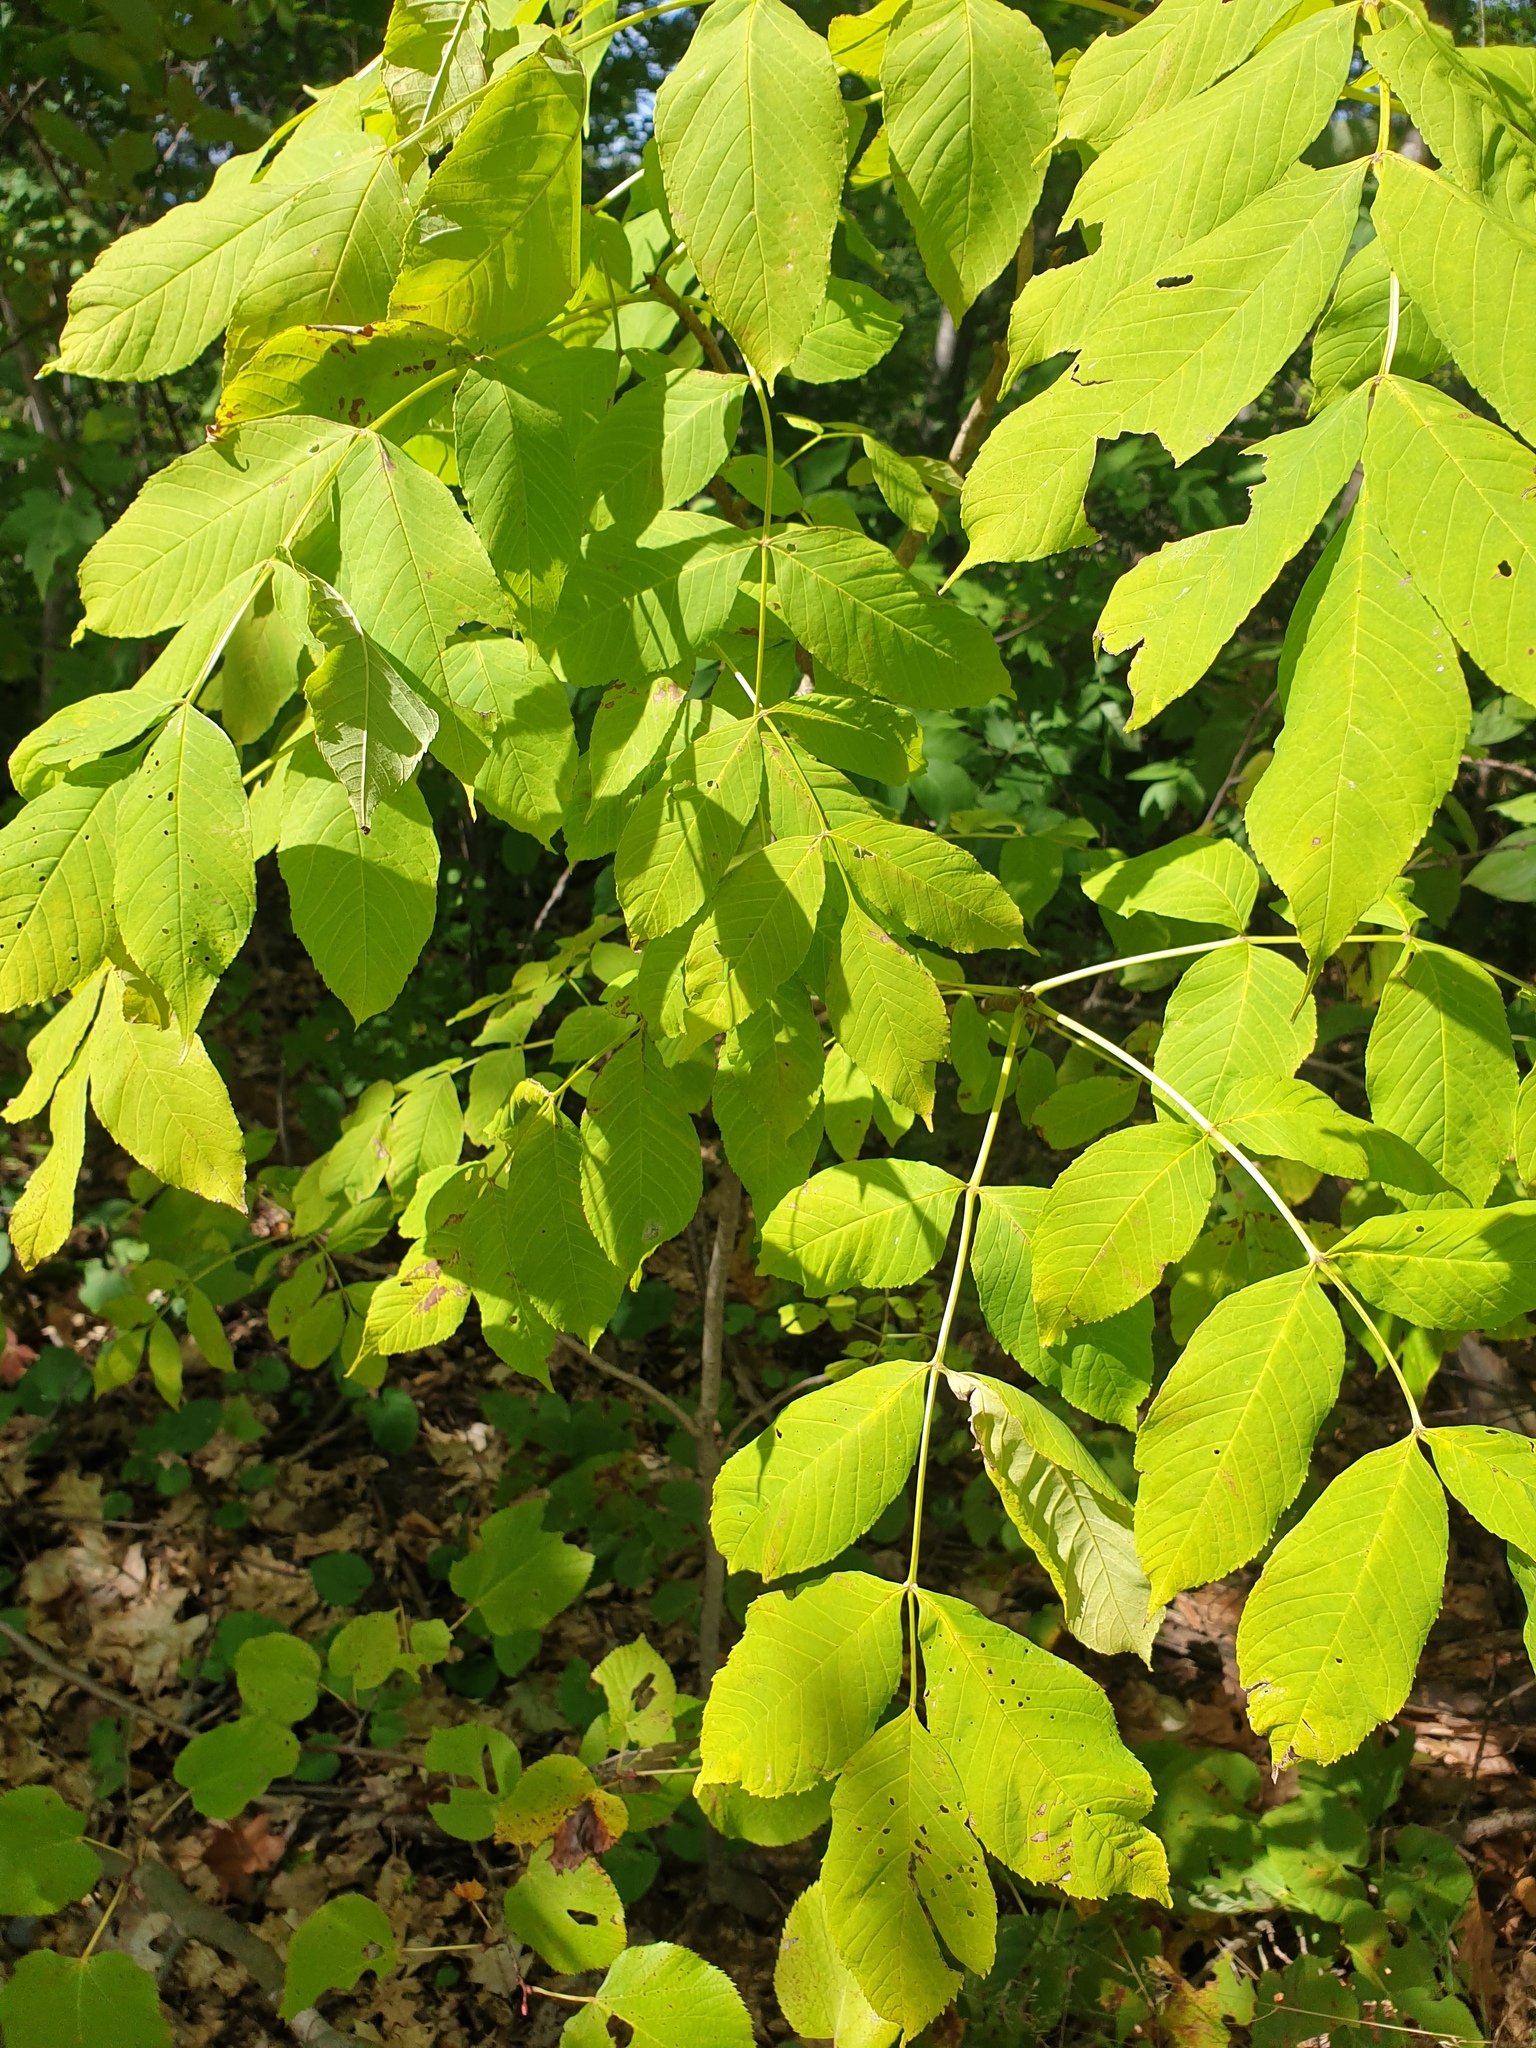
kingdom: Plantae
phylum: Tracheophyta
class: Magnoliopsida
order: Lamiales
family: Oleaceae
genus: Fraxinus
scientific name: Fraxinus nigra
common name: Black ash
